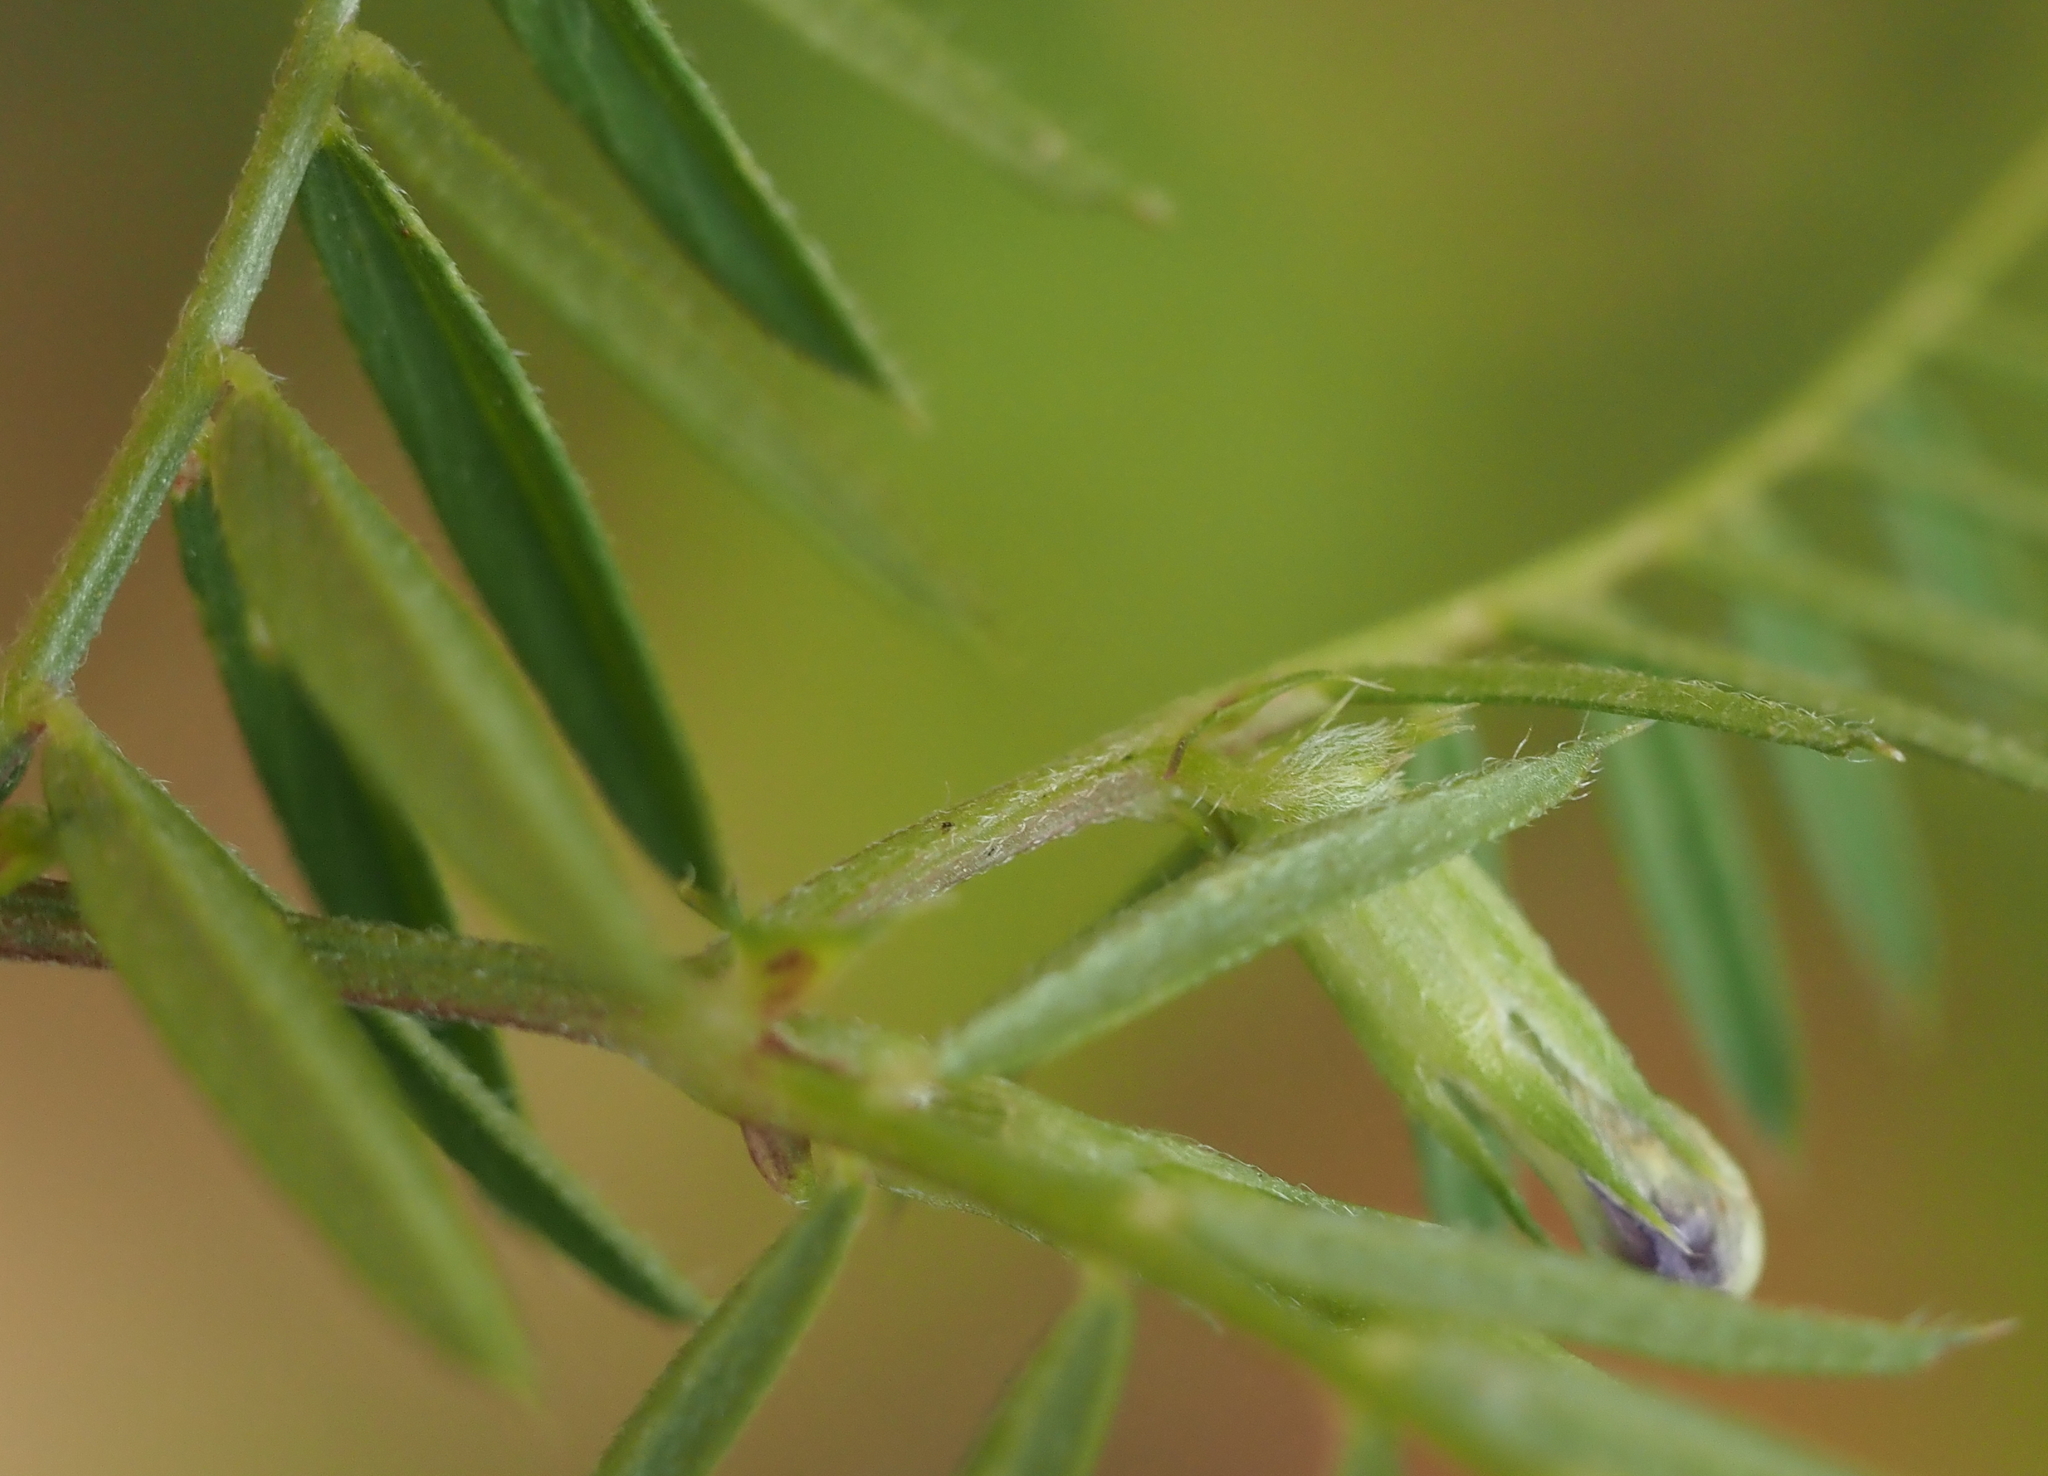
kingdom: Plantae
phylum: Tracheophyta
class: Magnoliopsida
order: Fabales
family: Fabaceae
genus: Vicia
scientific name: Vicia sativa
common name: Garden vetch
